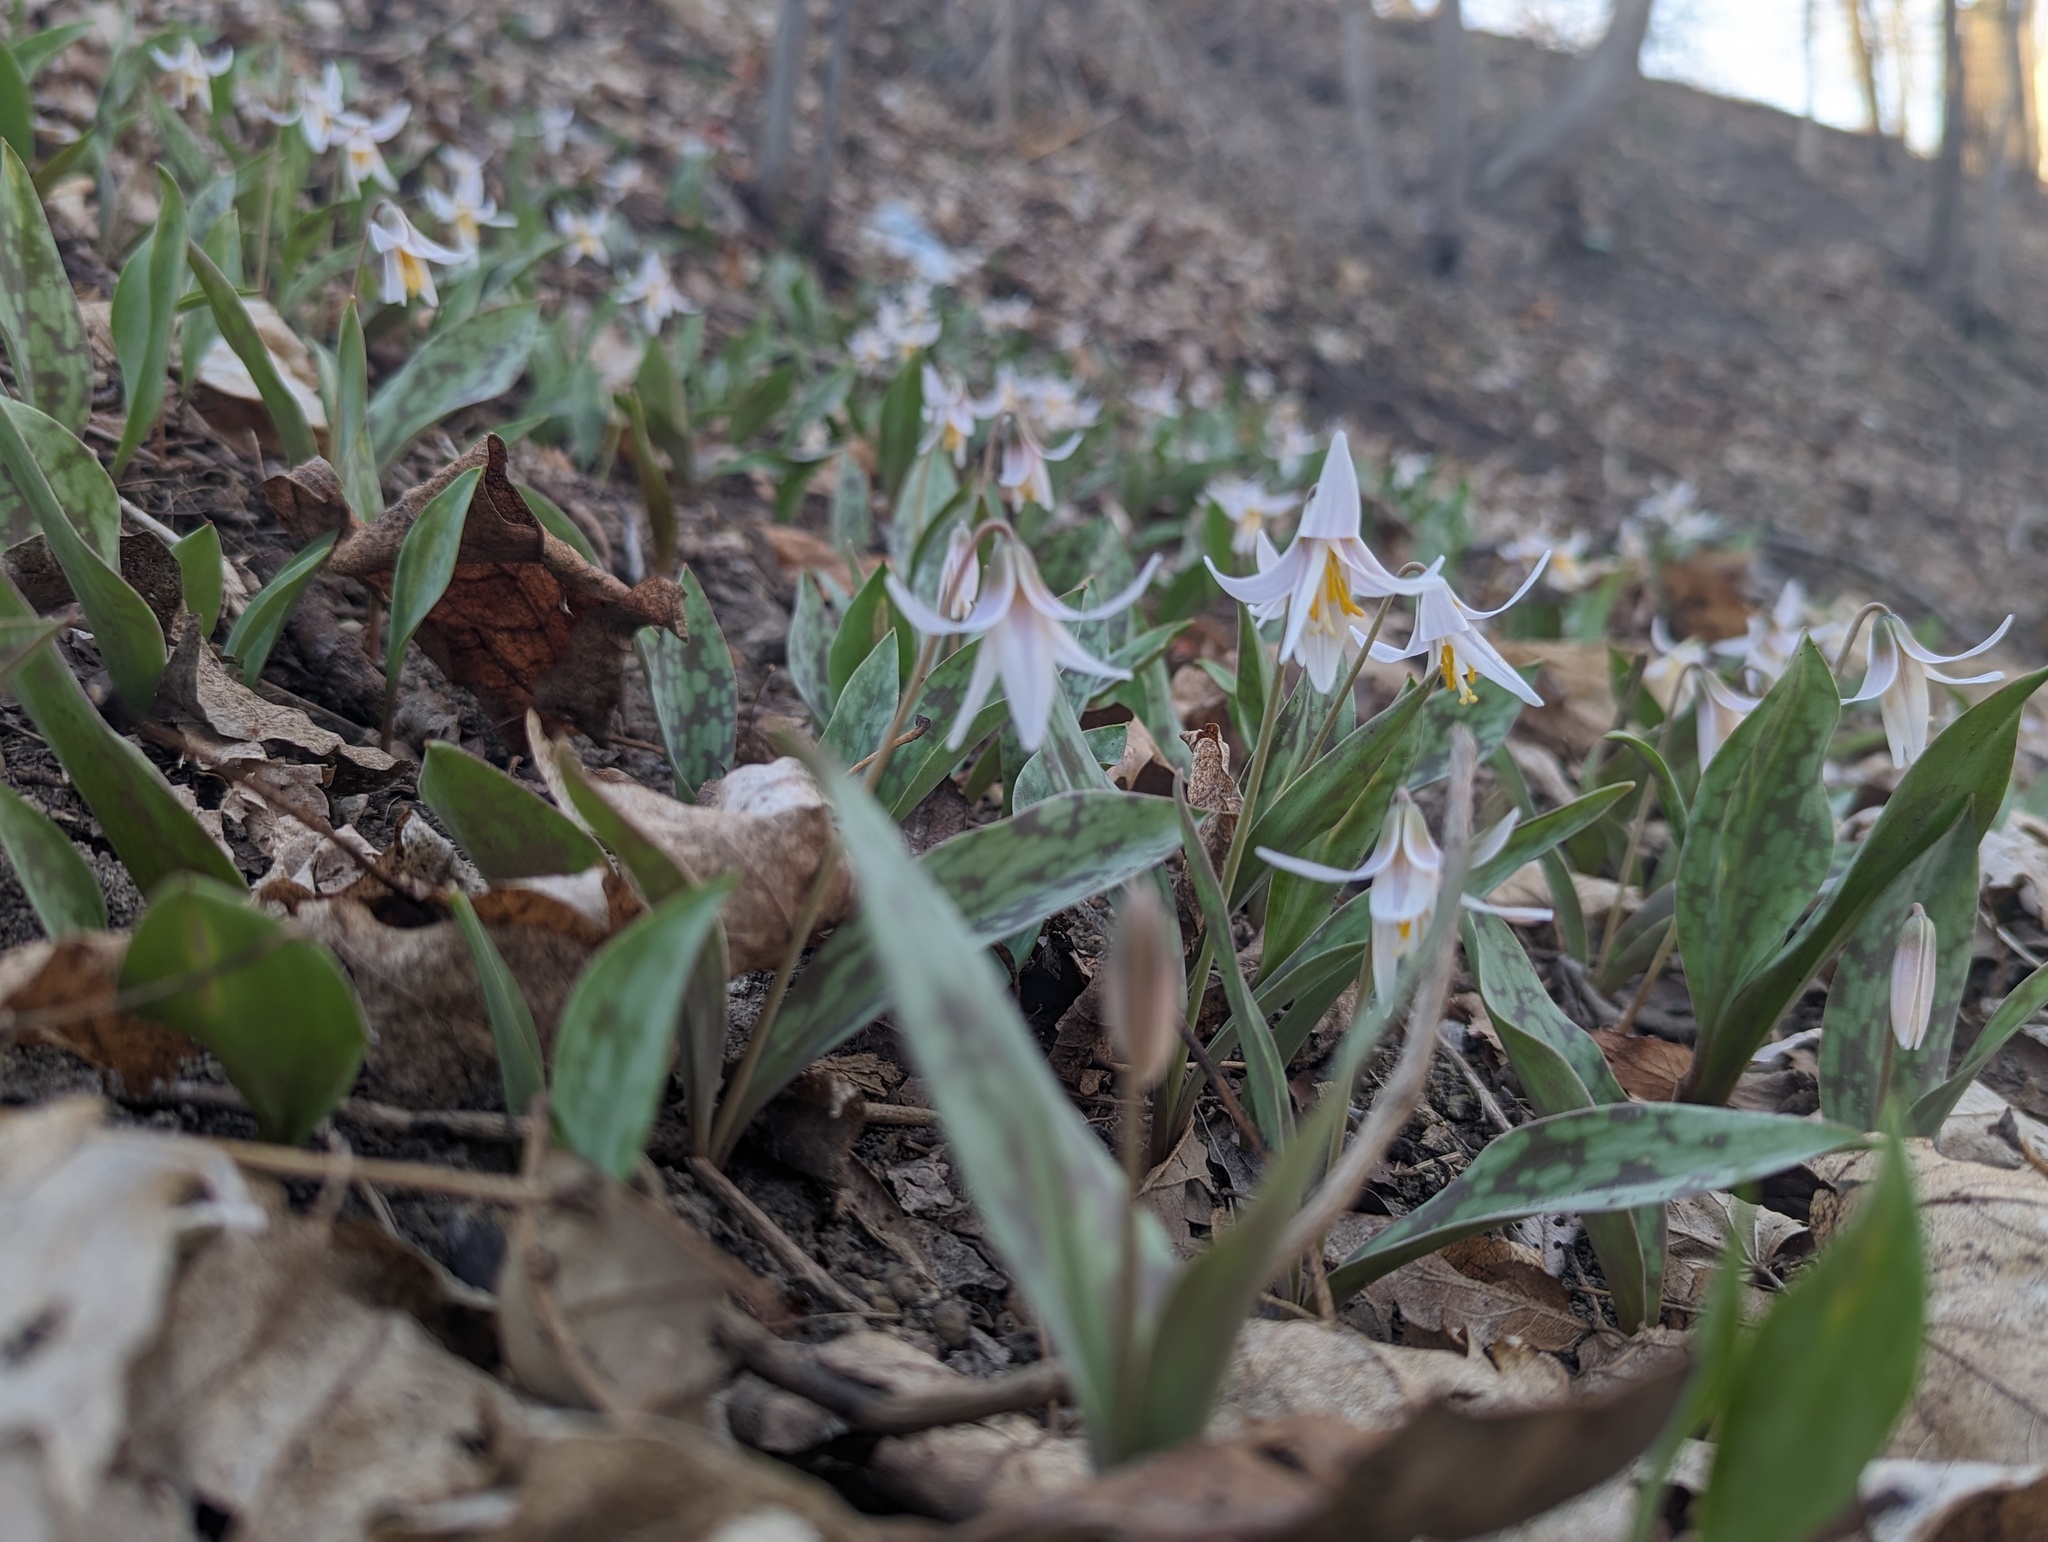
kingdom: Plantae
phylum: Tracheophyta
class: Liliopsida
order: Liliales
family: Liliaceae
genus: Erythronium
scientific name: Erythronium albidum
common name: White trout-lily
